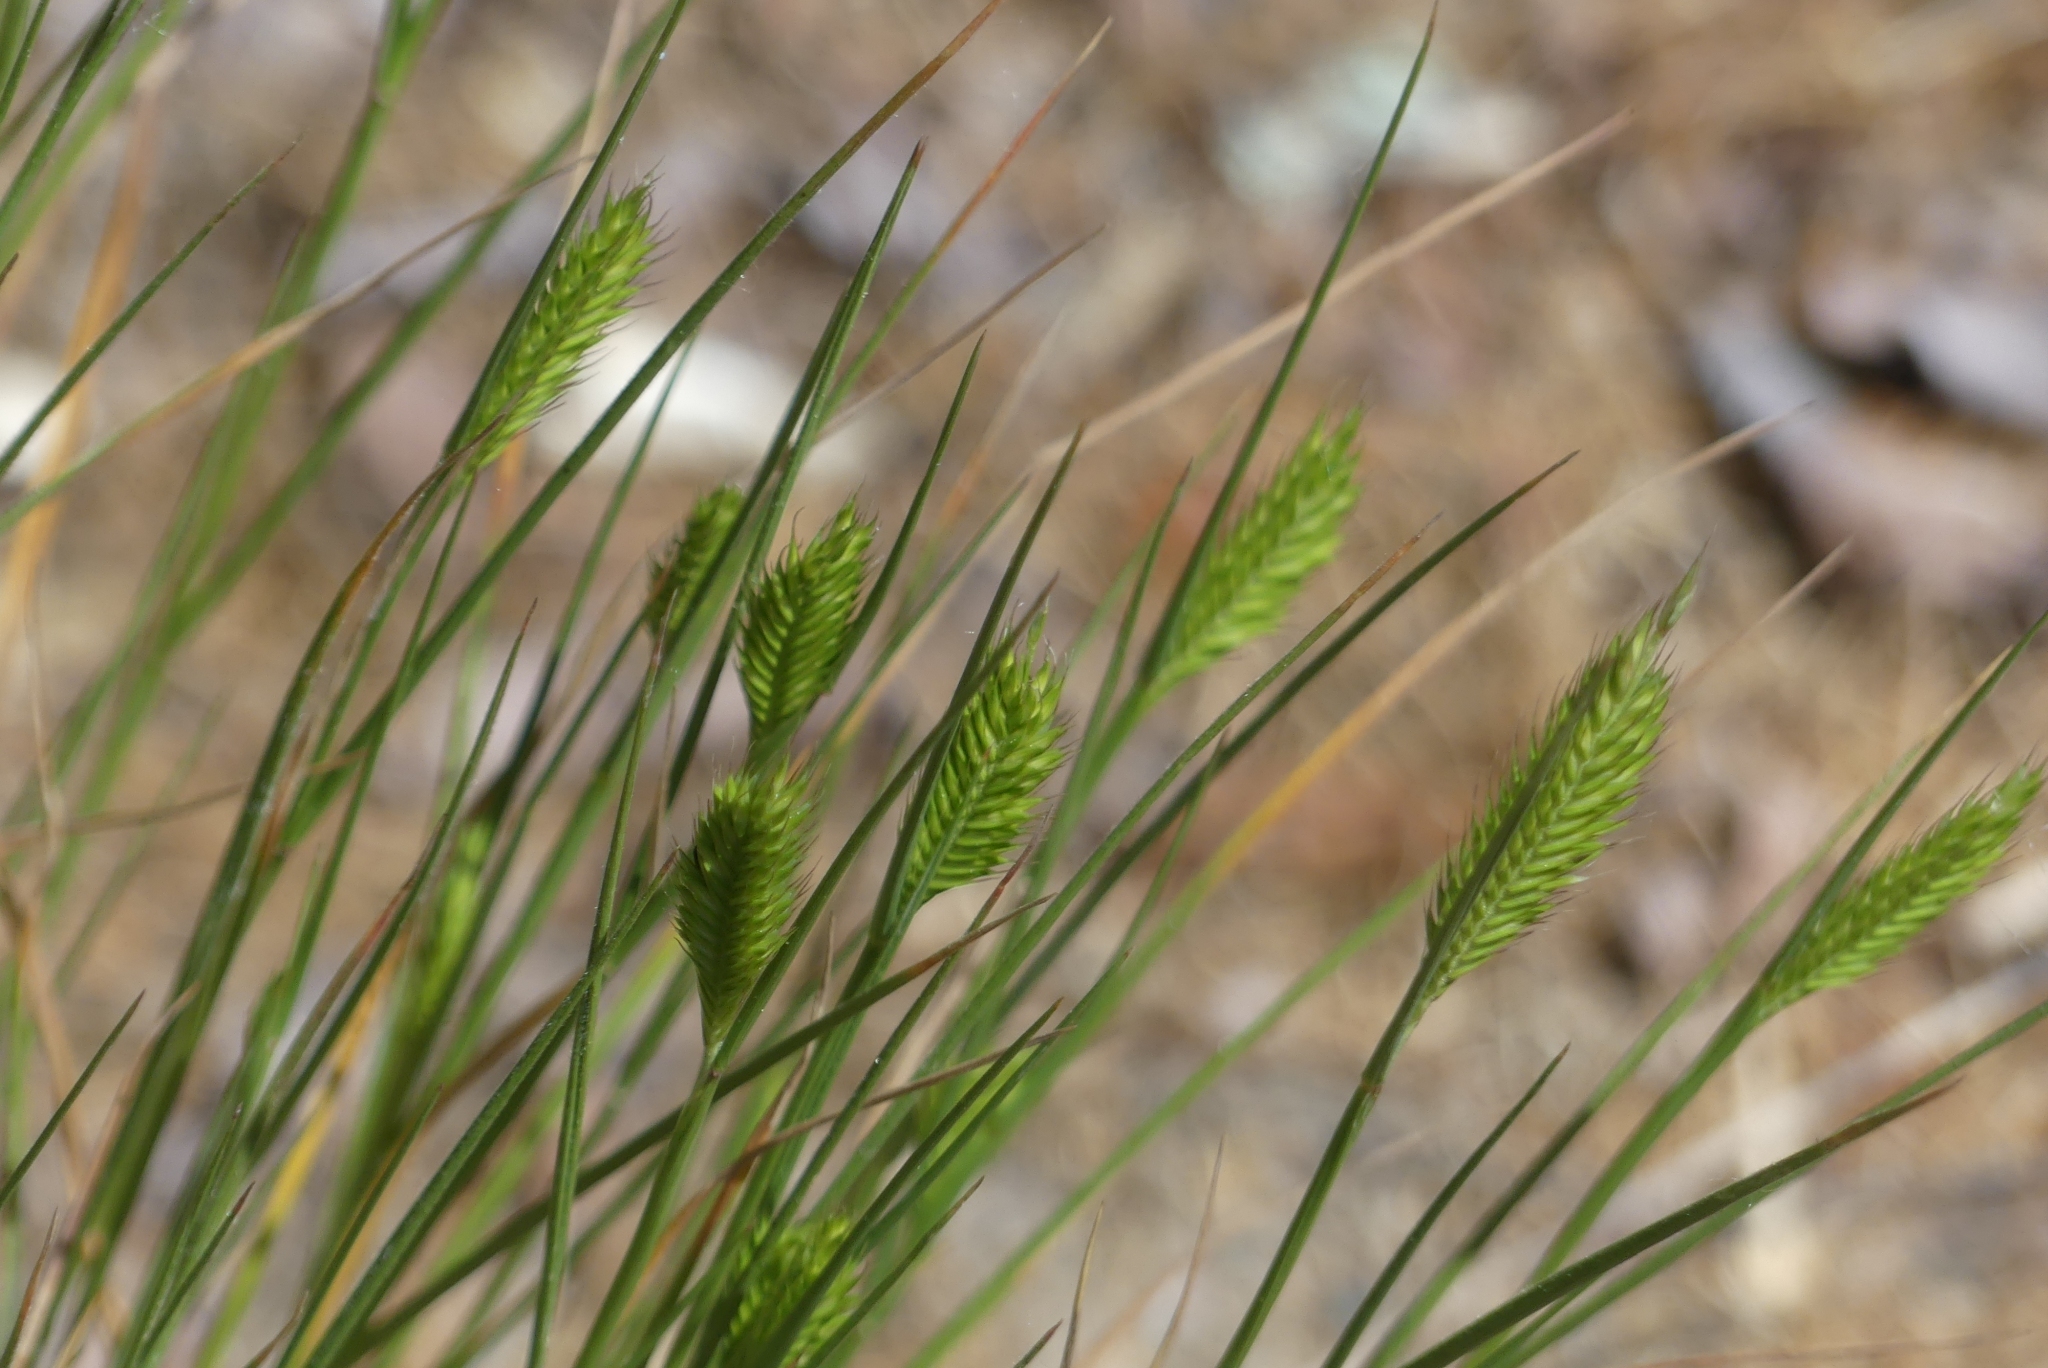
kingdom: Plantae
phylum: Tracheophyta
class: Liliopsida
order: Poales
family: Poaceae
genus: Agropyron
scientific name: Agropyron cristatum
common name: Crested wheatgrass
